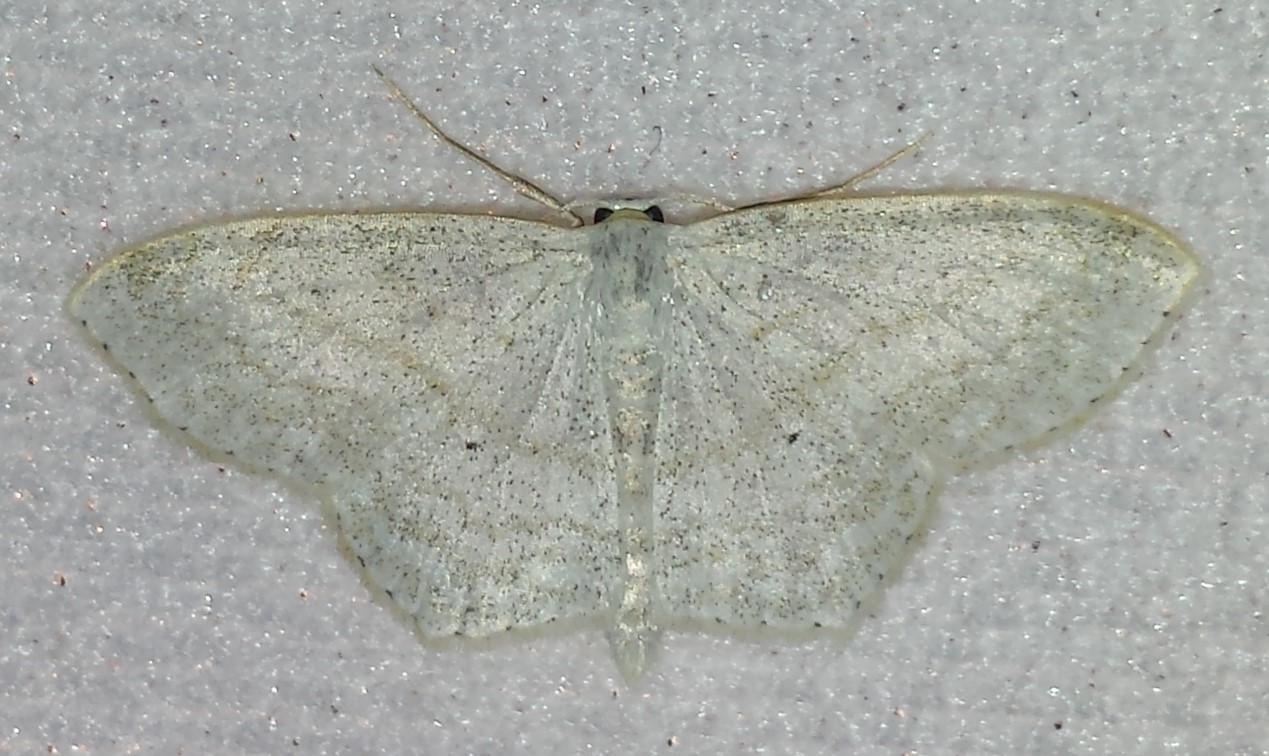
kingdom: Animalia
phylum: Arthropoda
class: Insecta
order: Lepidoptera
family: Geometridae
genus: Scopula
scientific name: Scopula limboundata
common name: Large lace border
